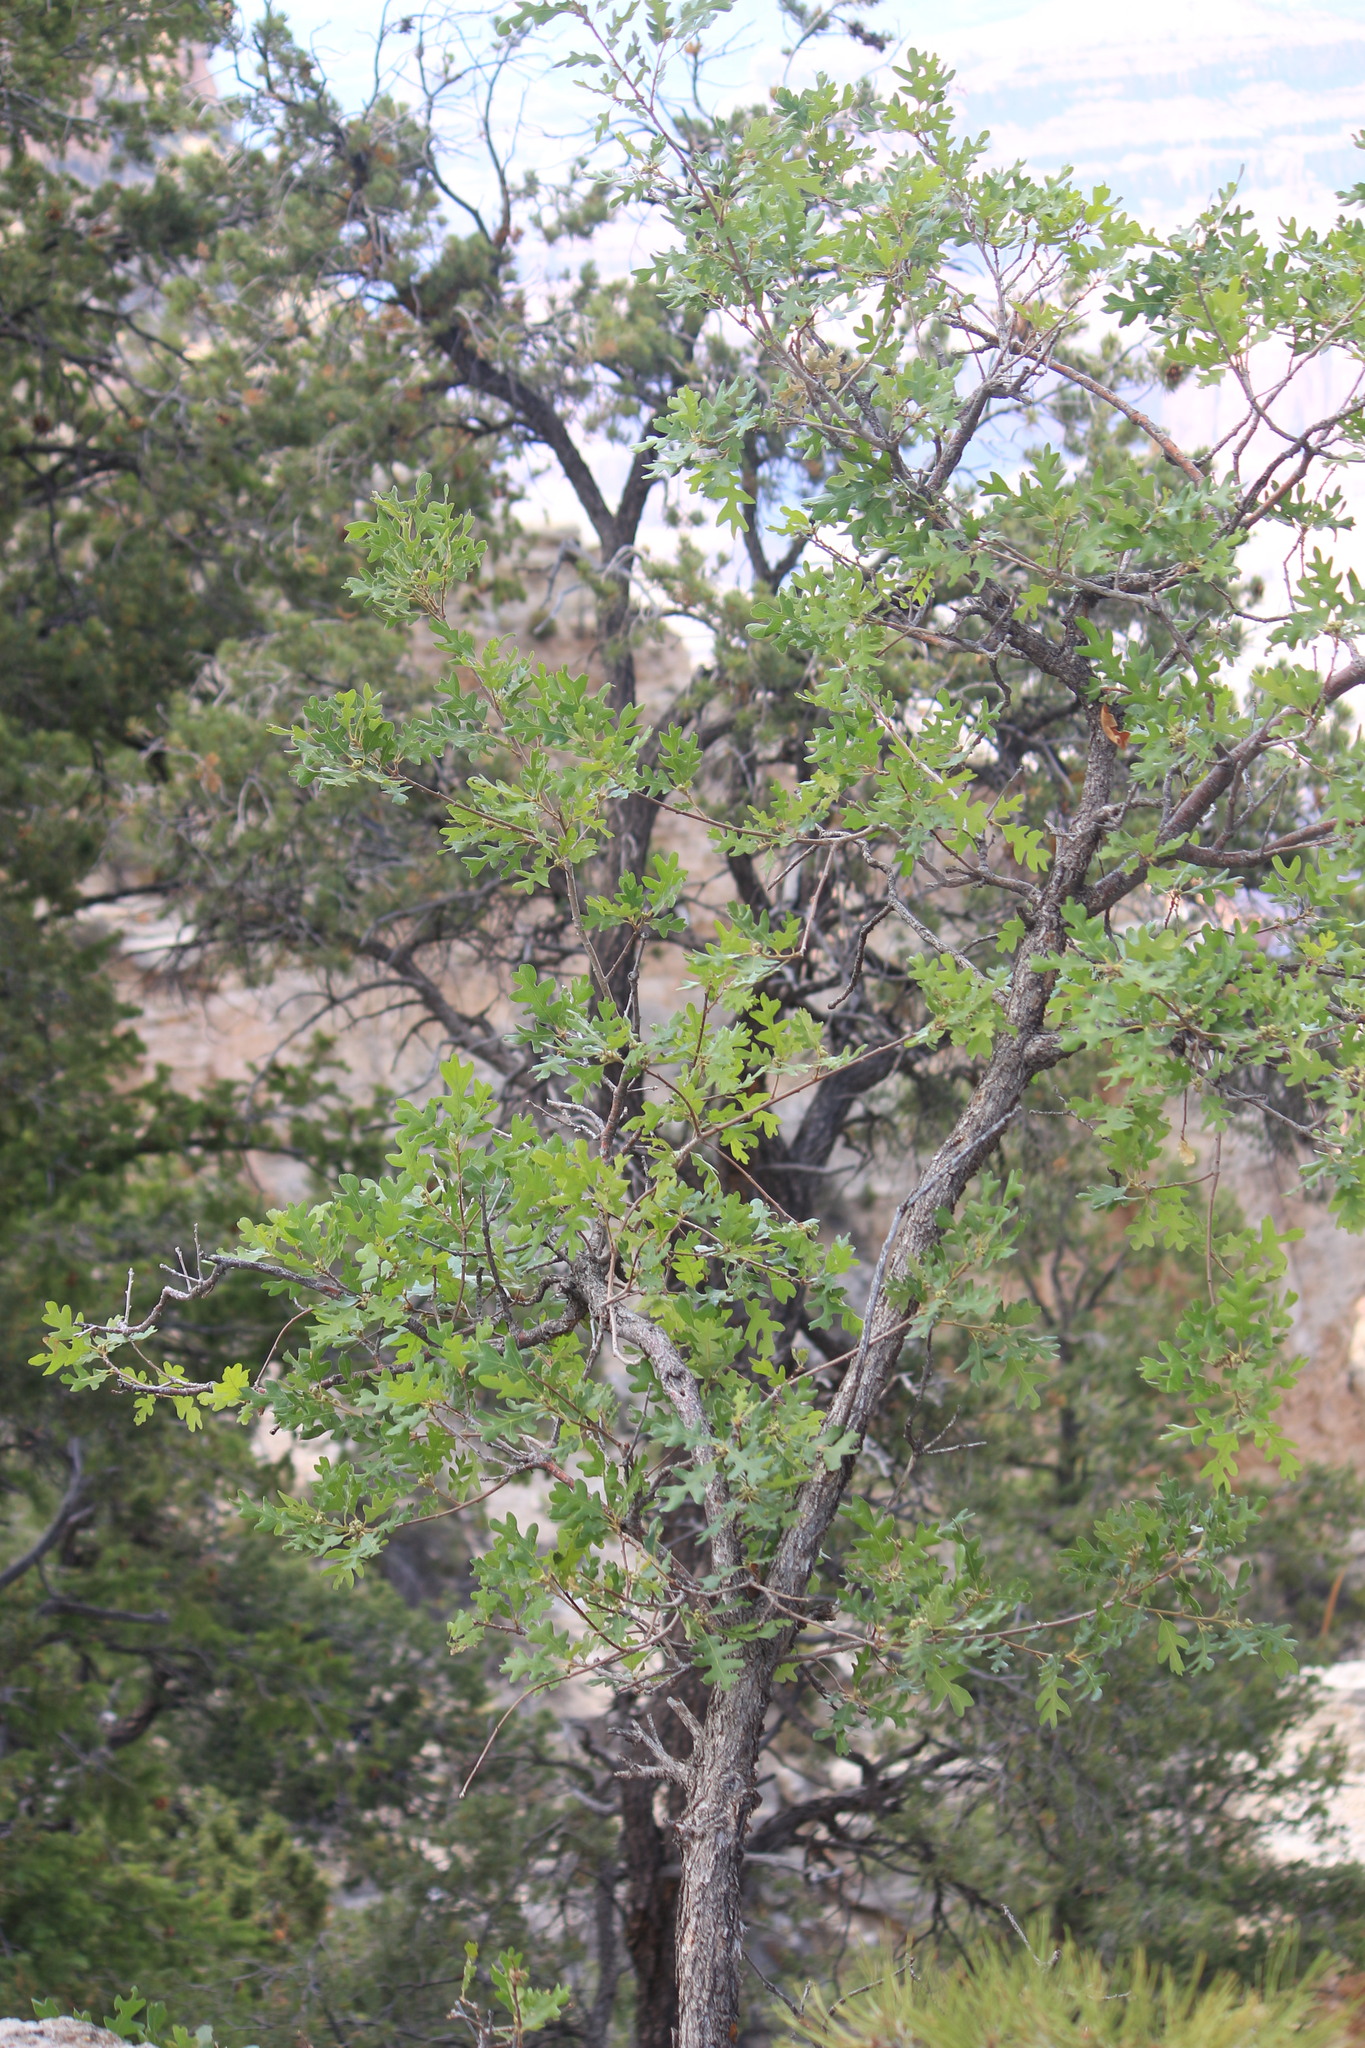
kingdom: Plantae
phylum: Tracheophyta
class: Magnoliopsida
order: Fagales
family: Fagaceae
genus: Quercus
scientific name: Quercus gambelii
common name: Gambel oak
